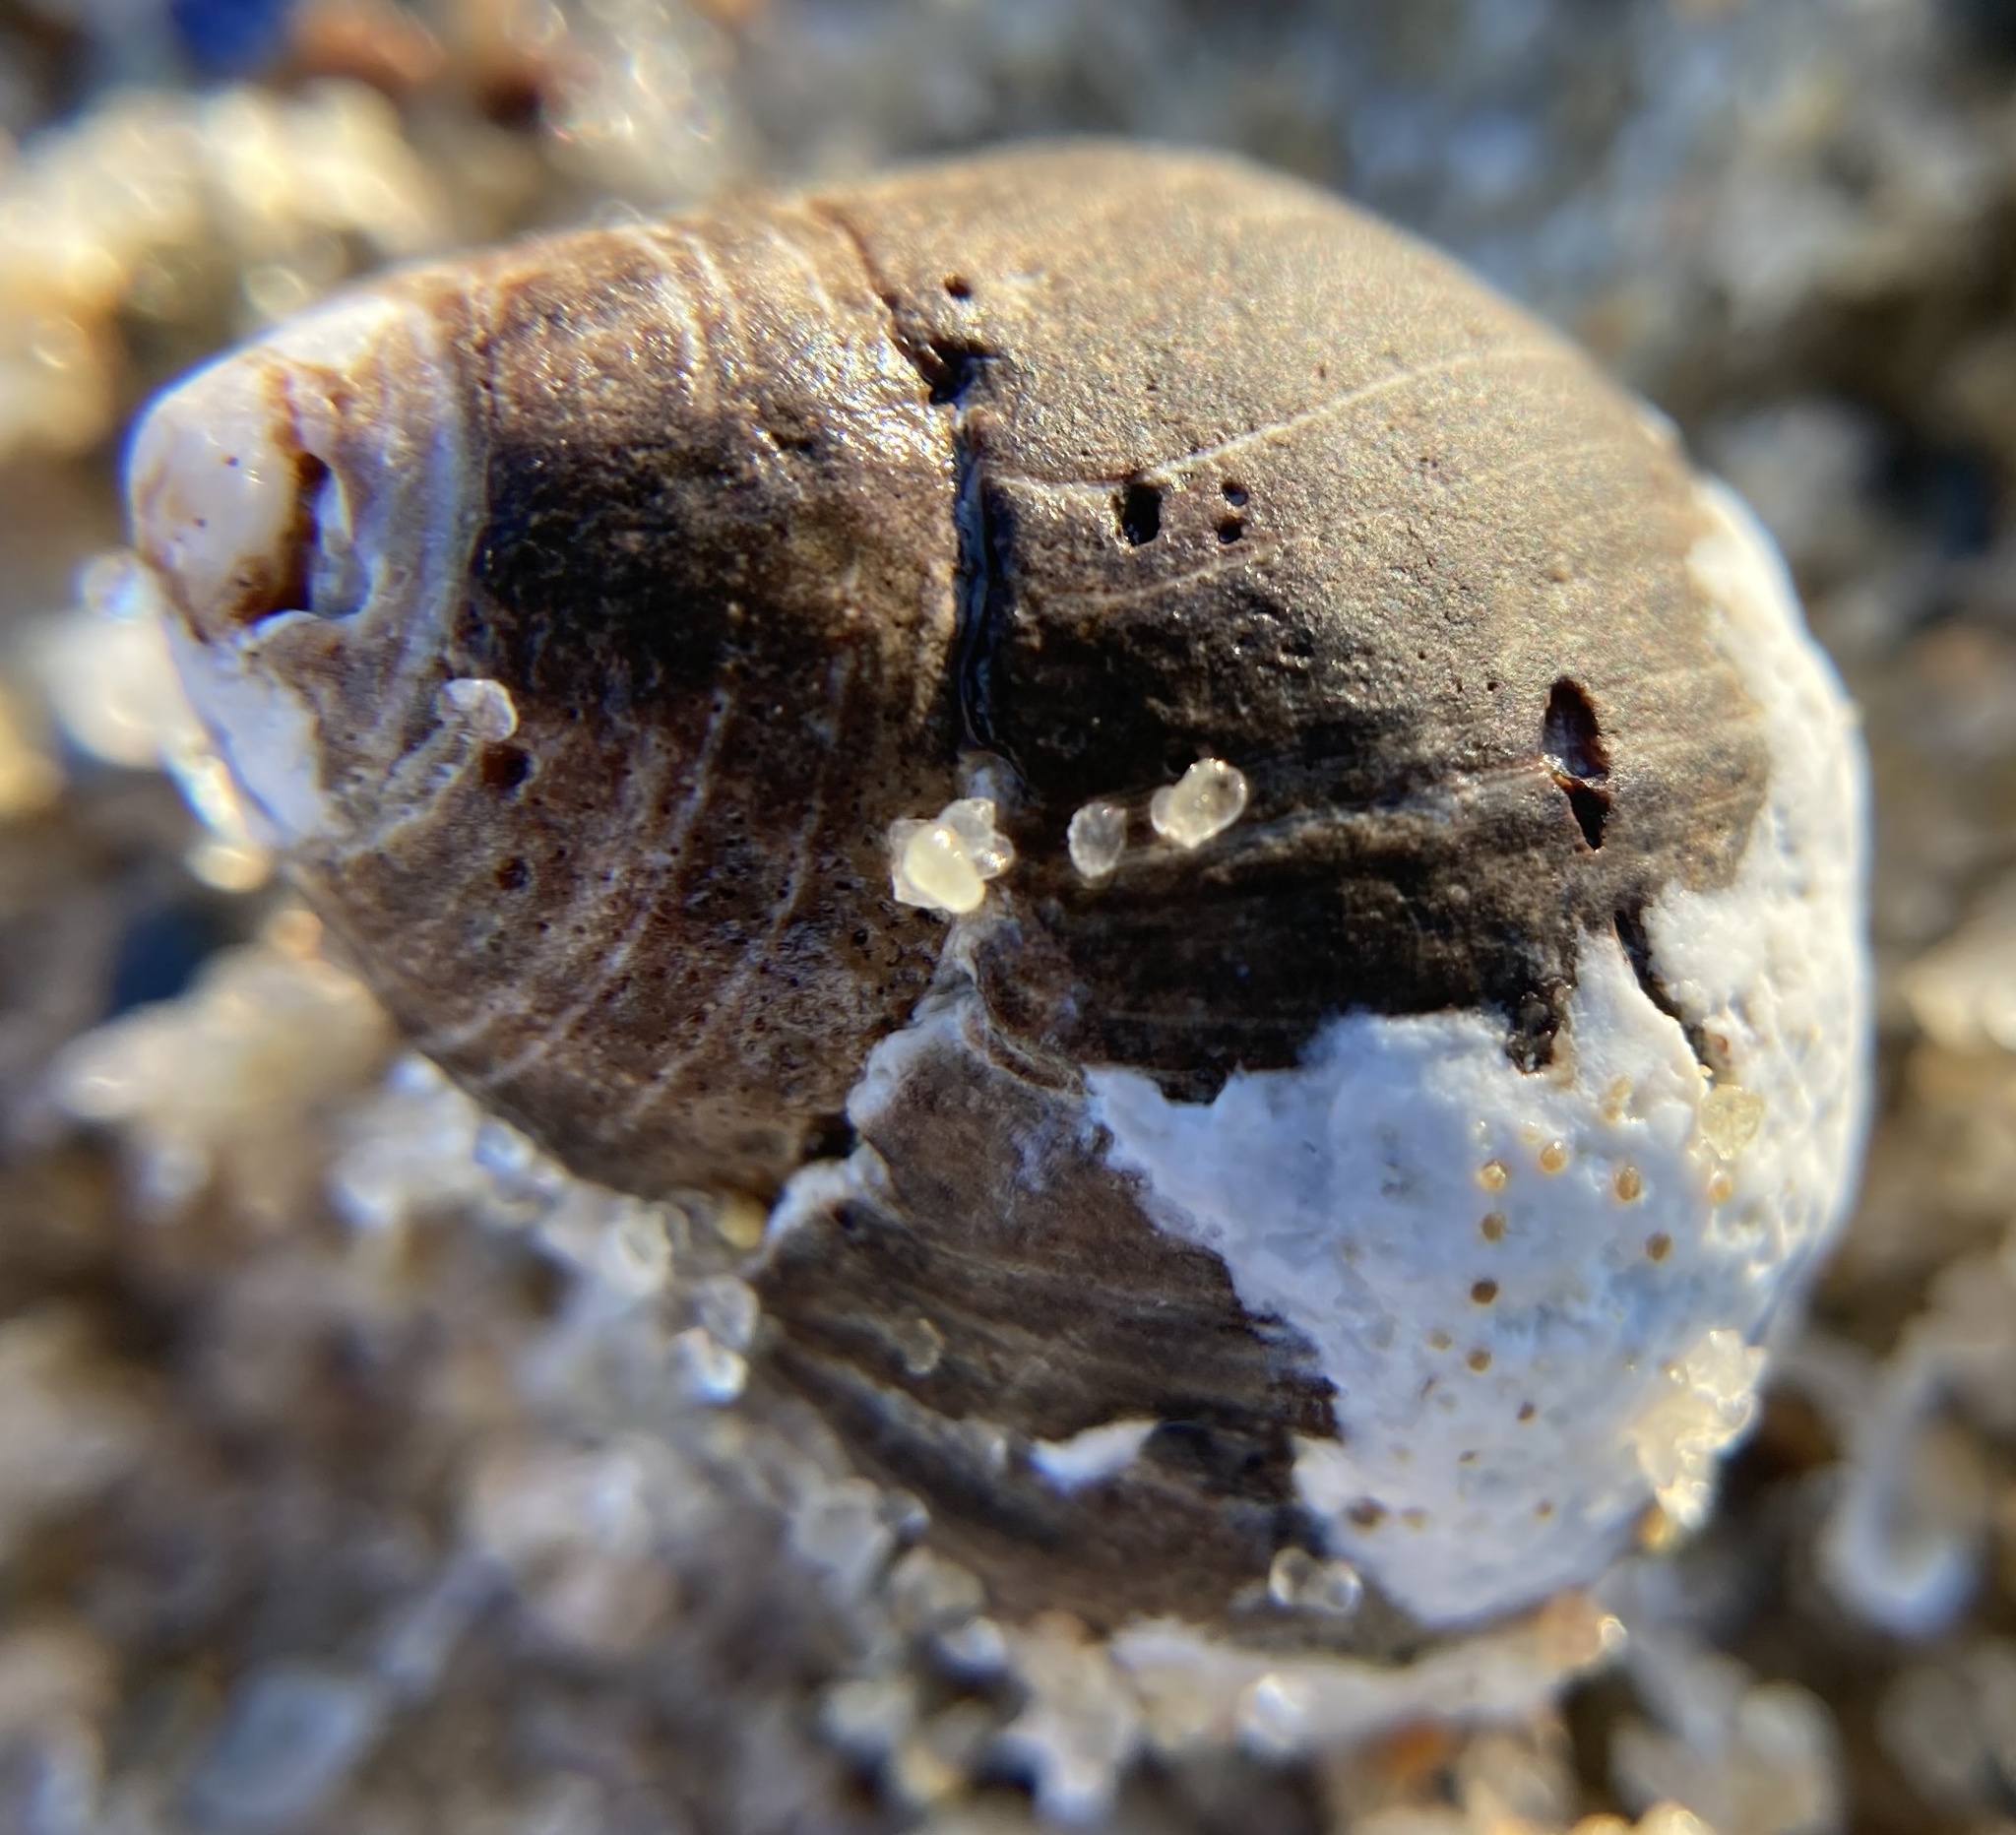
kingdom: Animalia
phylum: Mollusca
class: Gastropoda
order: Littorinimorpha
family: Littorinidae
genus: Littorina
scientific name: Littorina littorea
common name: Common periwinkle
